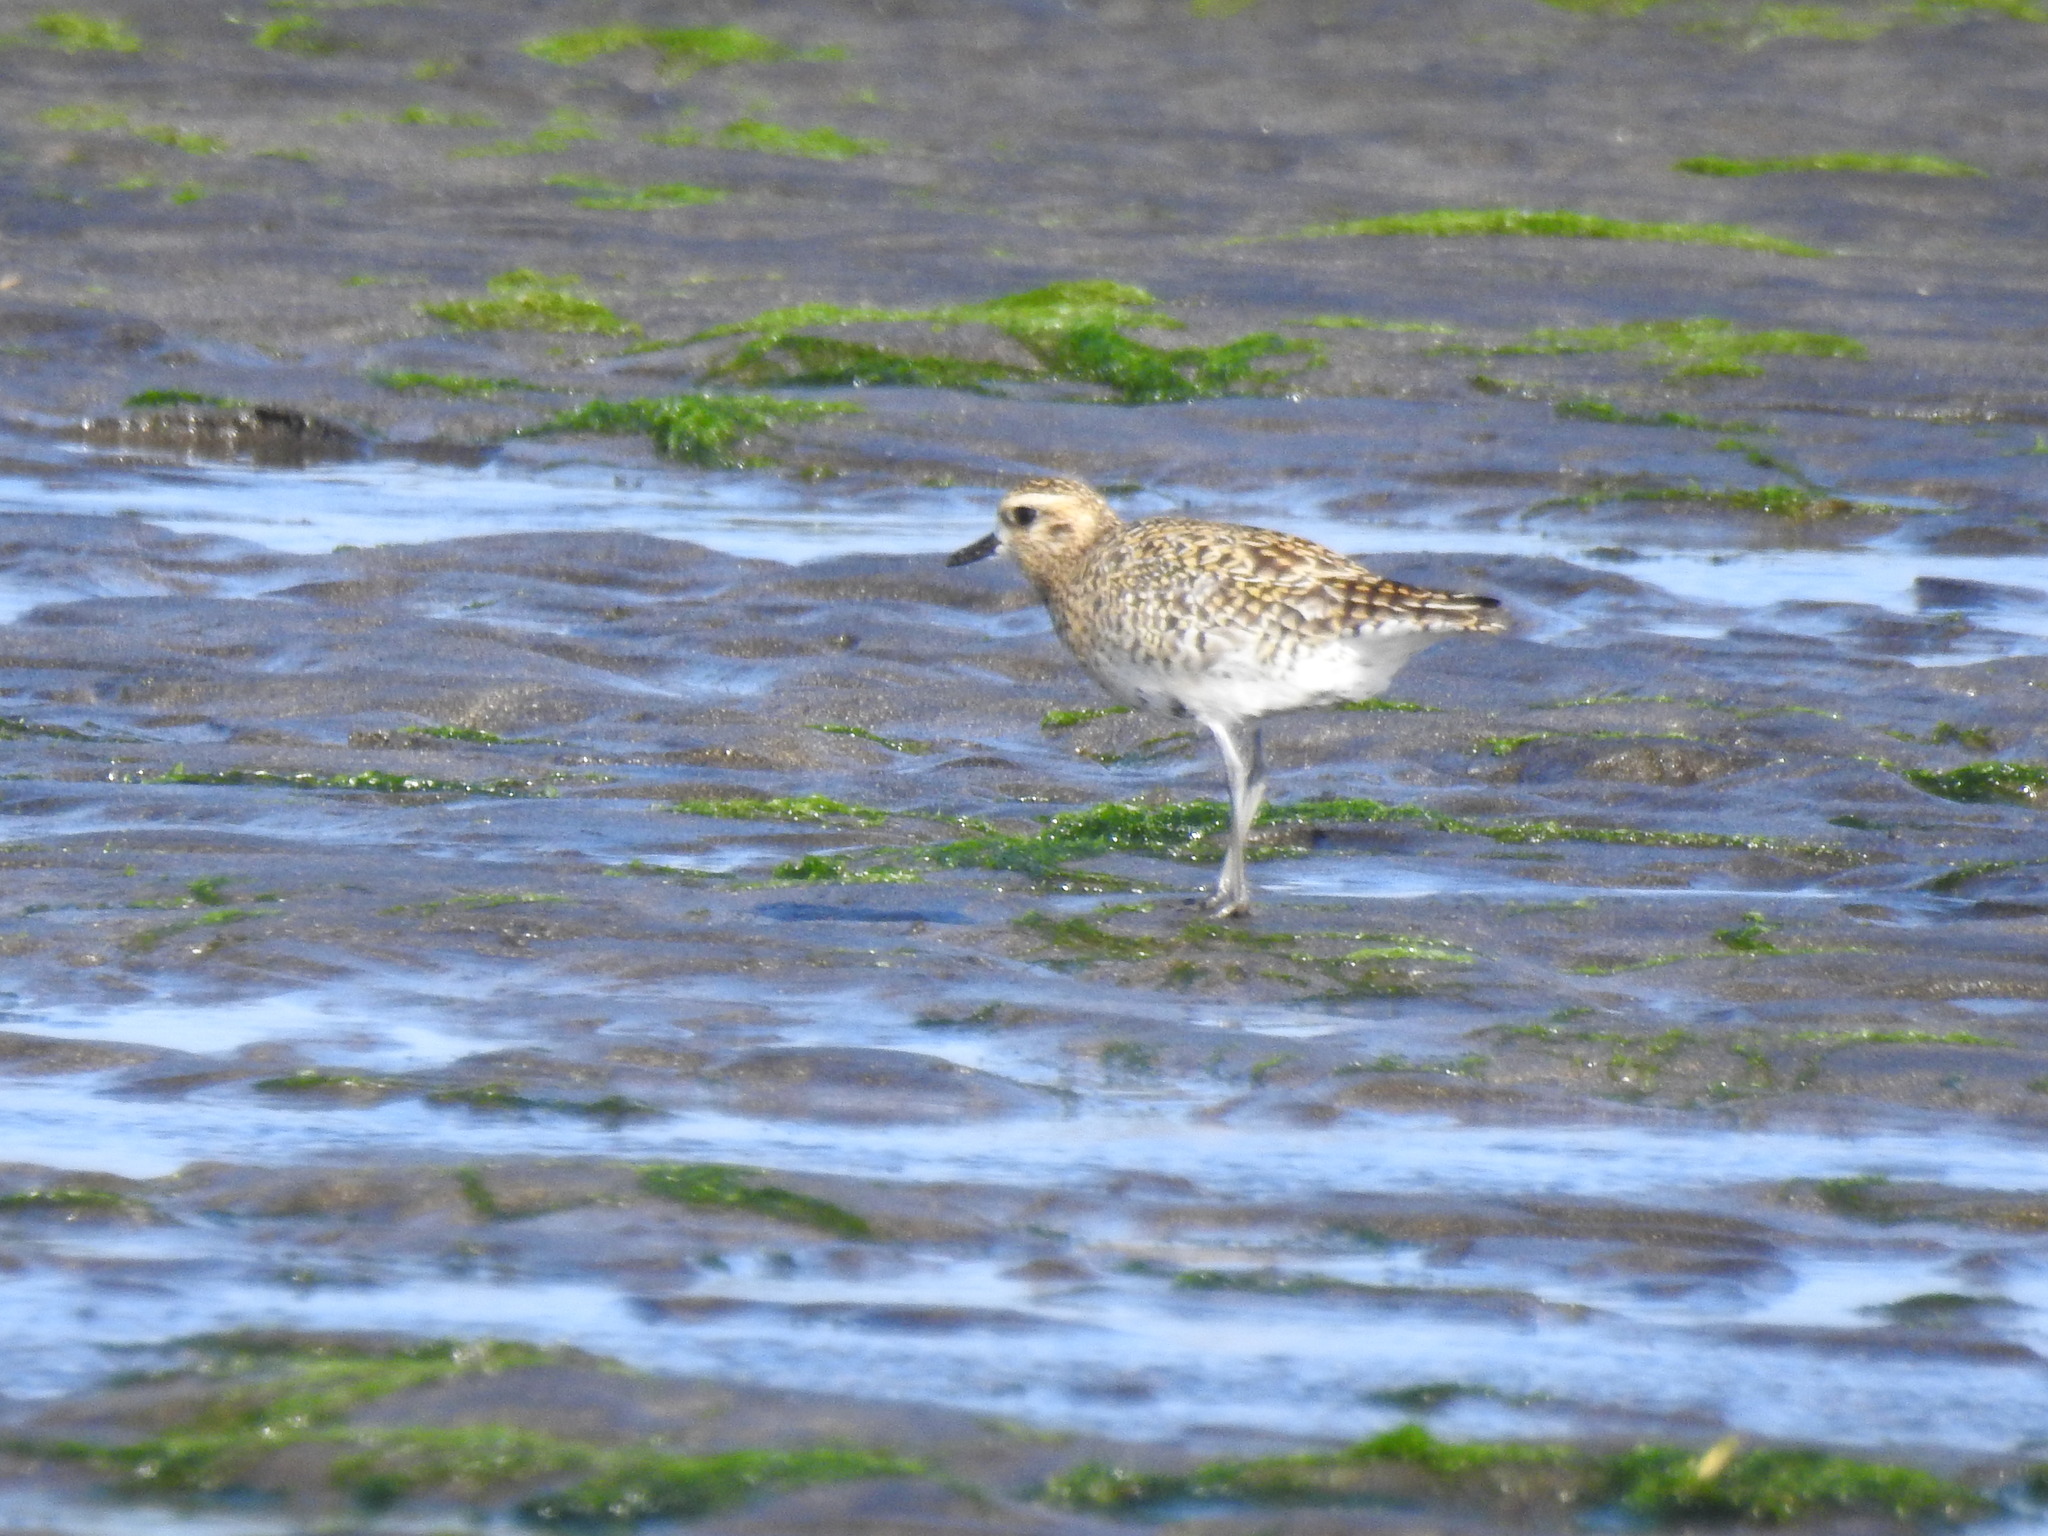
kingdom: Animalia
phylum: Chordata
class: Aves
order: Charadriiformes
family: Charadriidae
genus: Pluvialis
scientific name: Pluvialis fulva
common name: Pacific golden plover
